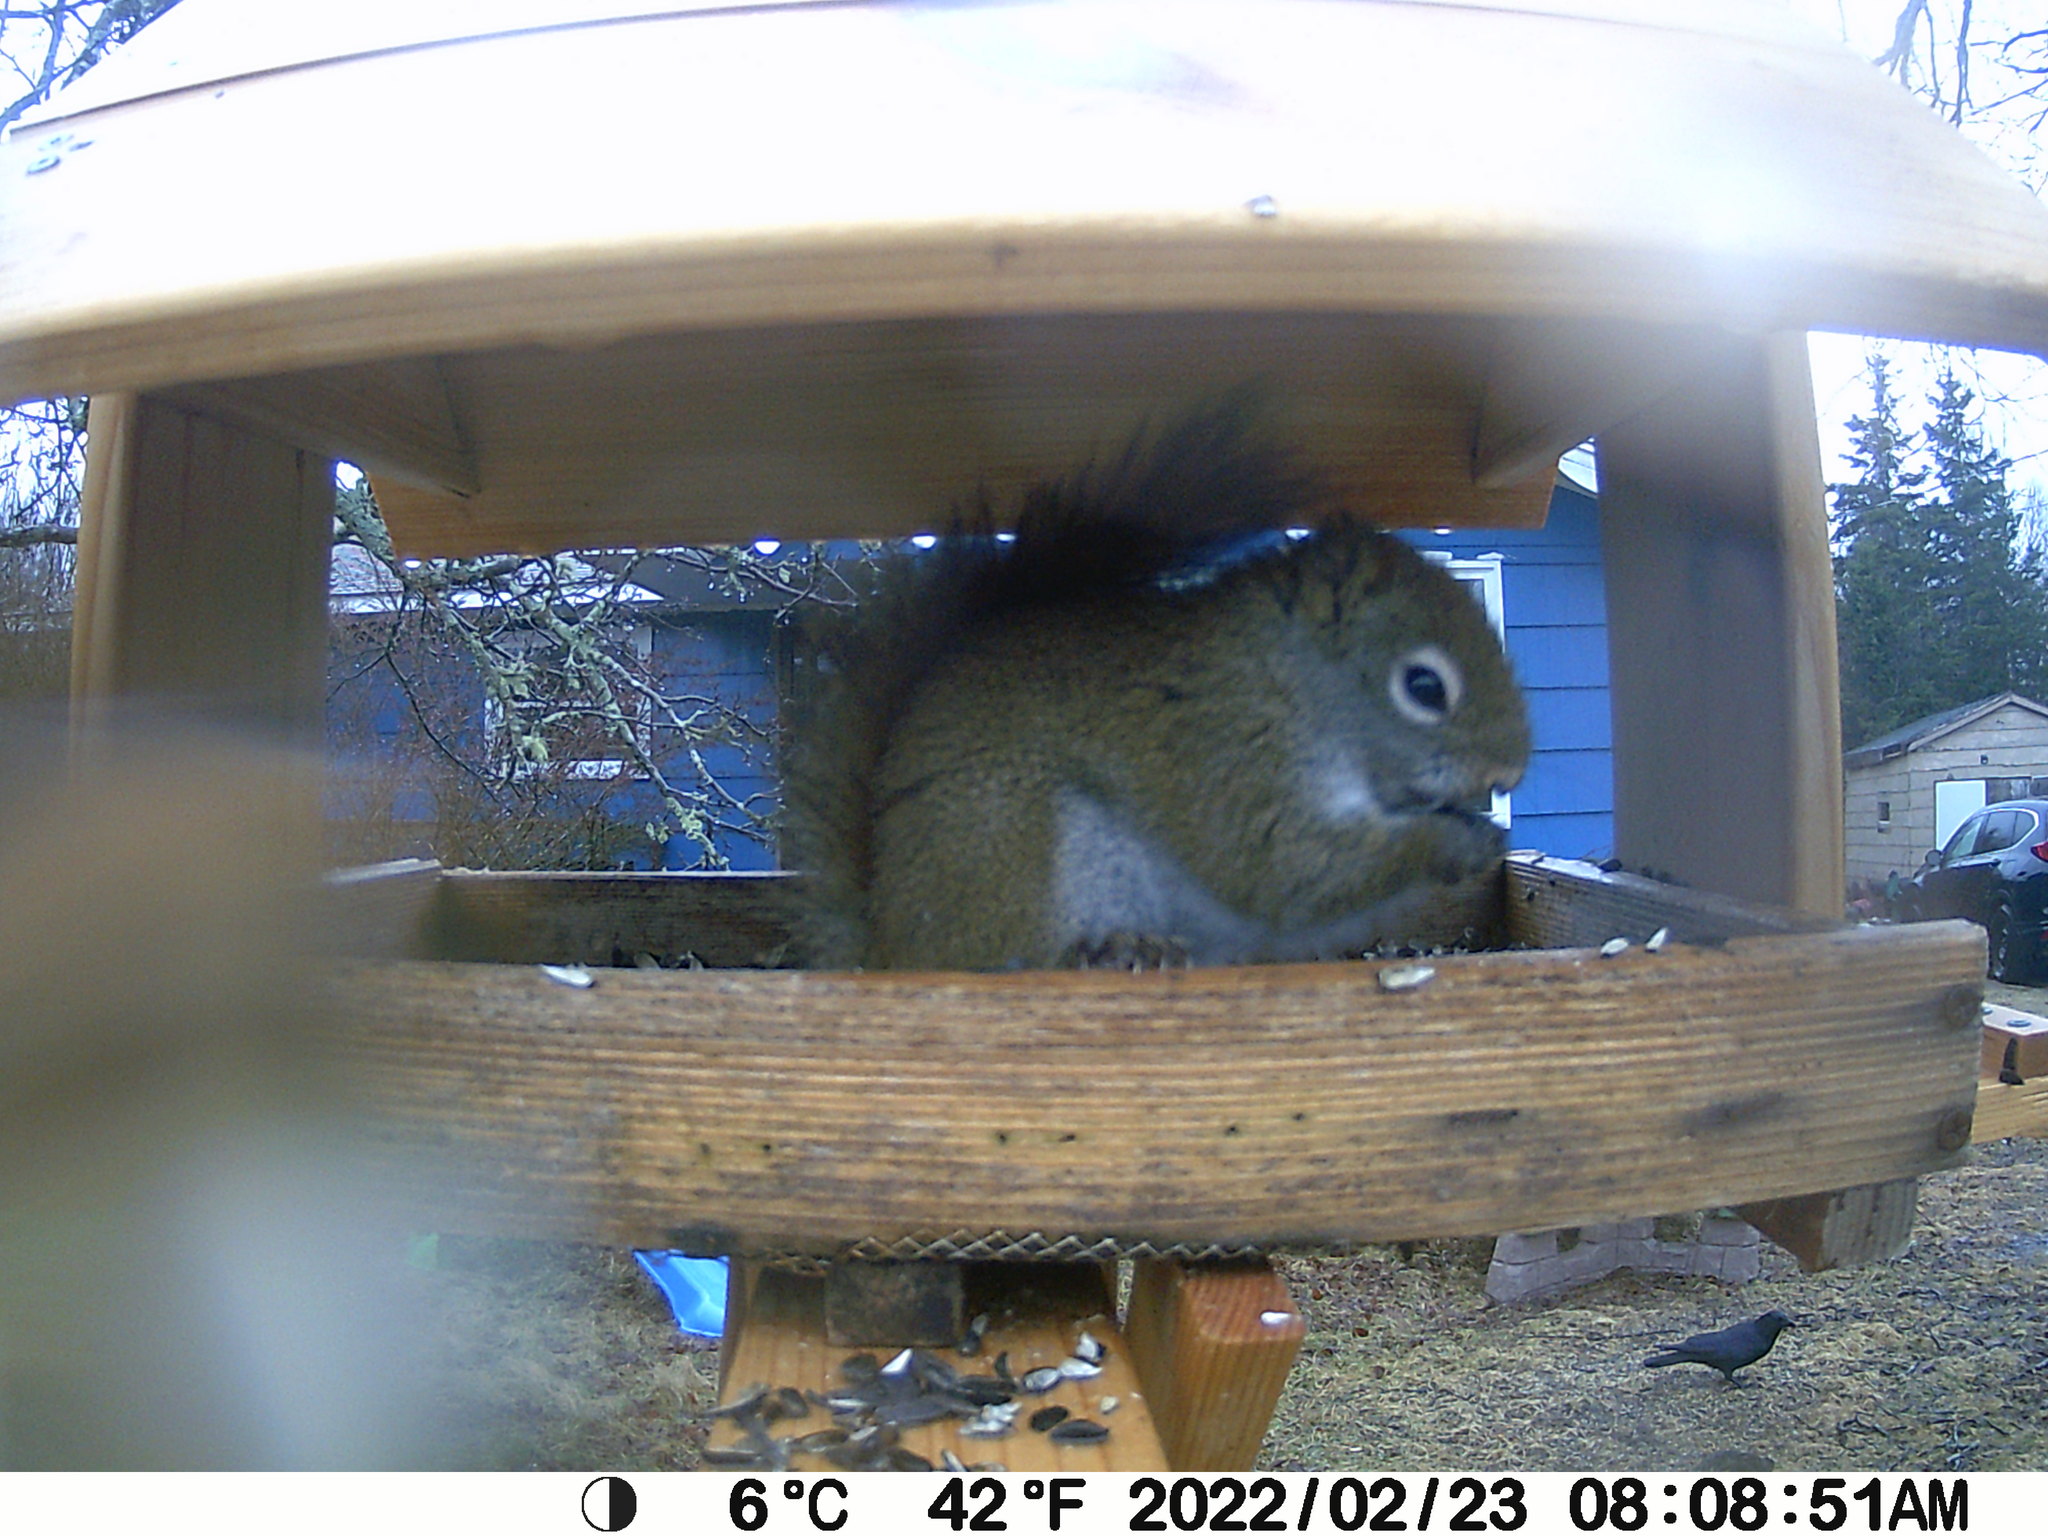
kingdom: Animalia
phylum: Chordata
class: Aves
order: Passeriformes
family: Corvidae
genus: Corvus
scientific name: Corvus brachyrhynchos
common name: American crow
